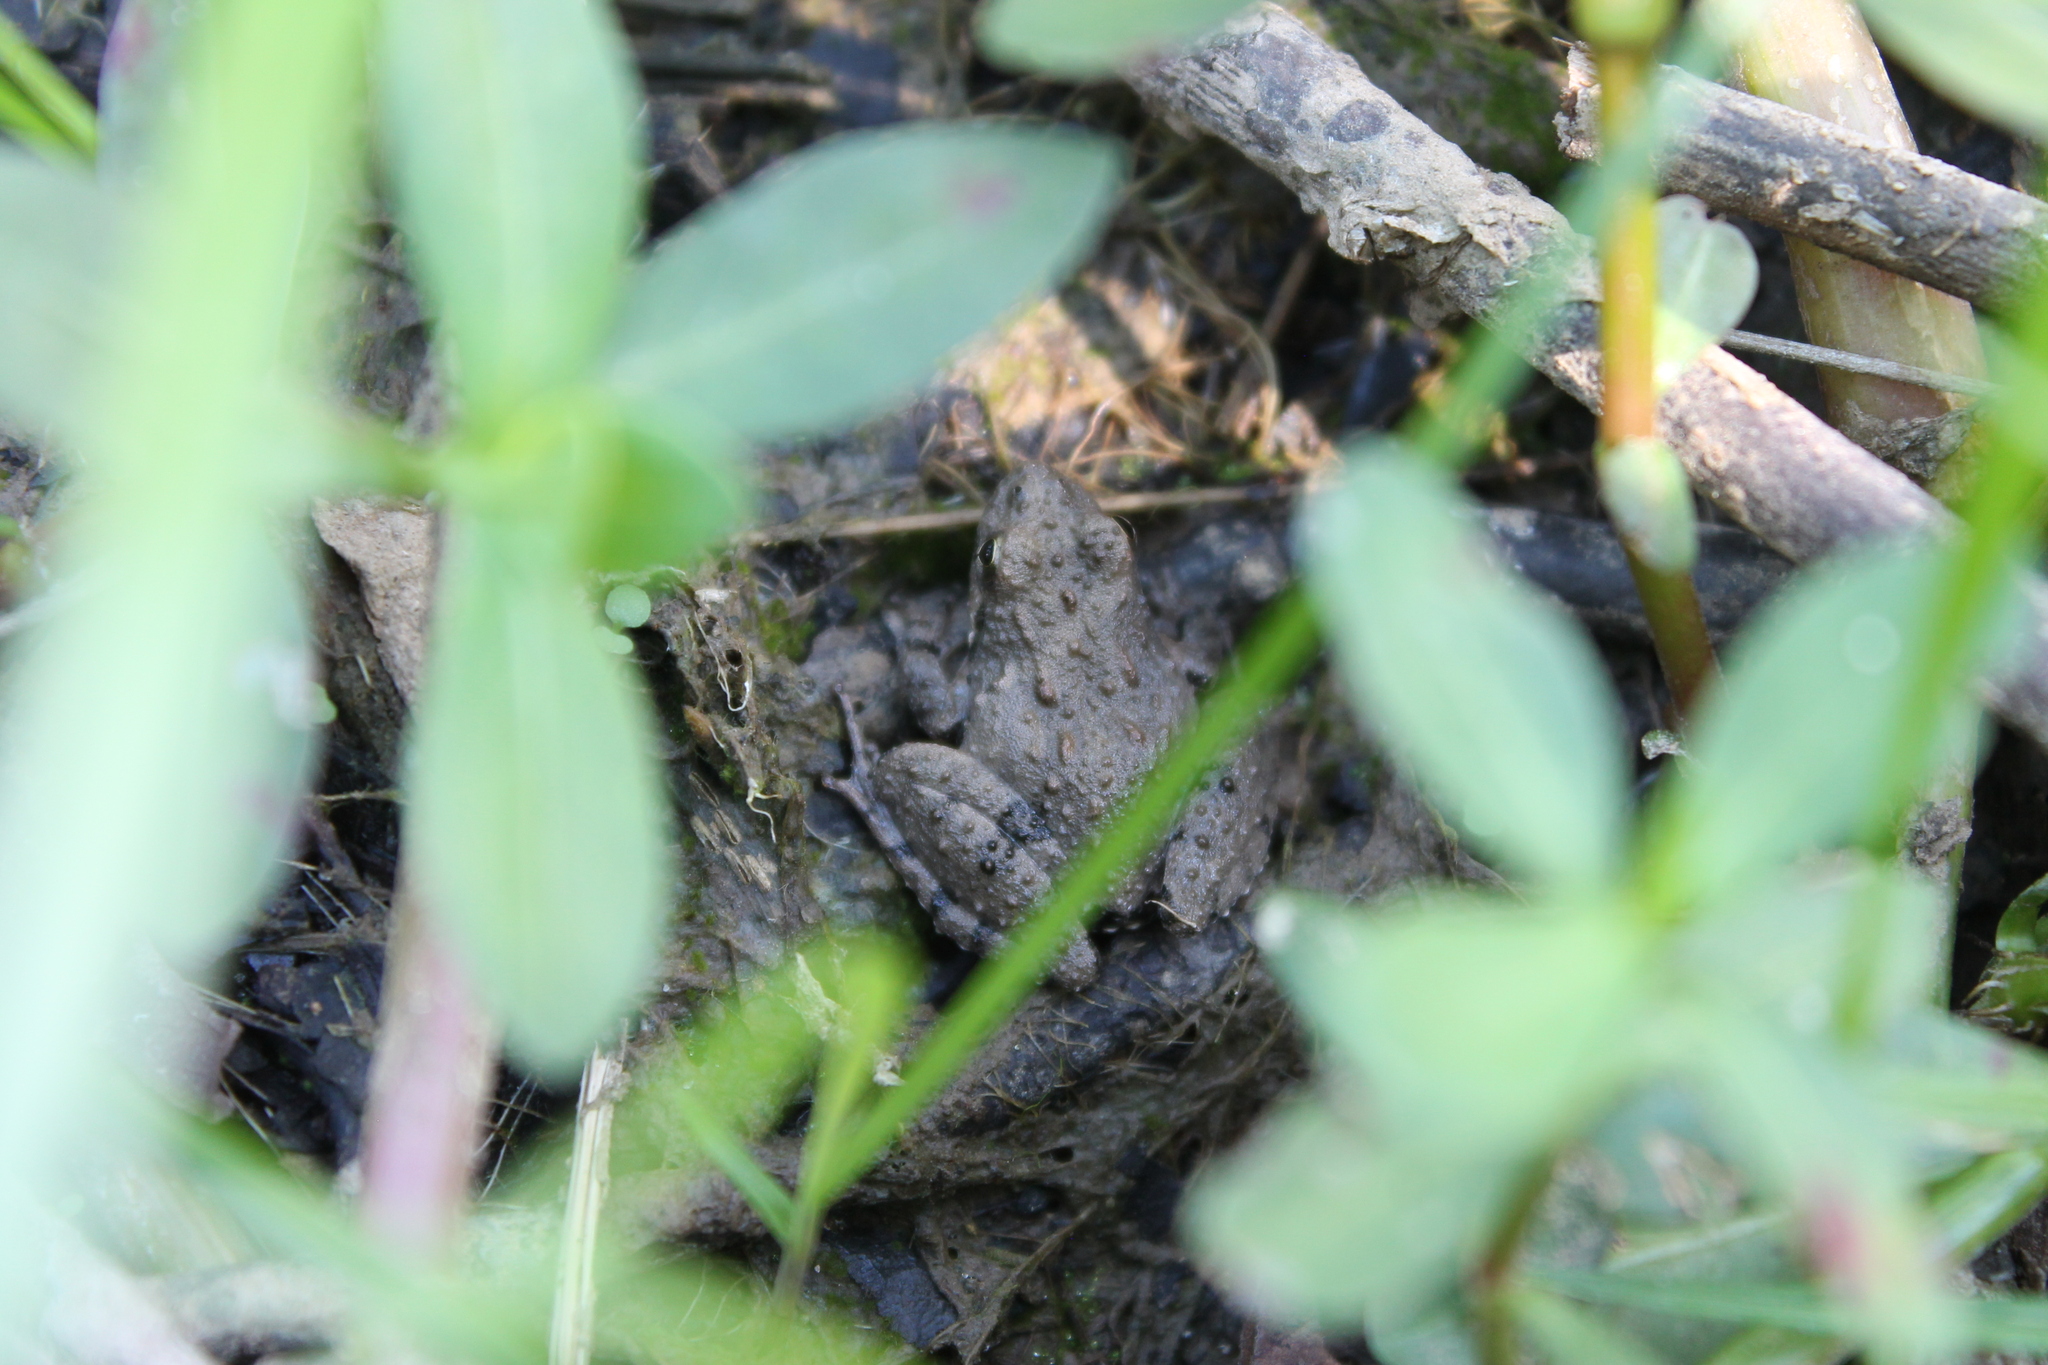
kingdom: Animalia
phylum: Chordata
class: Amphibia
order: Anura
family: Hylidae
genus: Acris
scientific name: Acris crepitans
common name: Northern cricket frog
